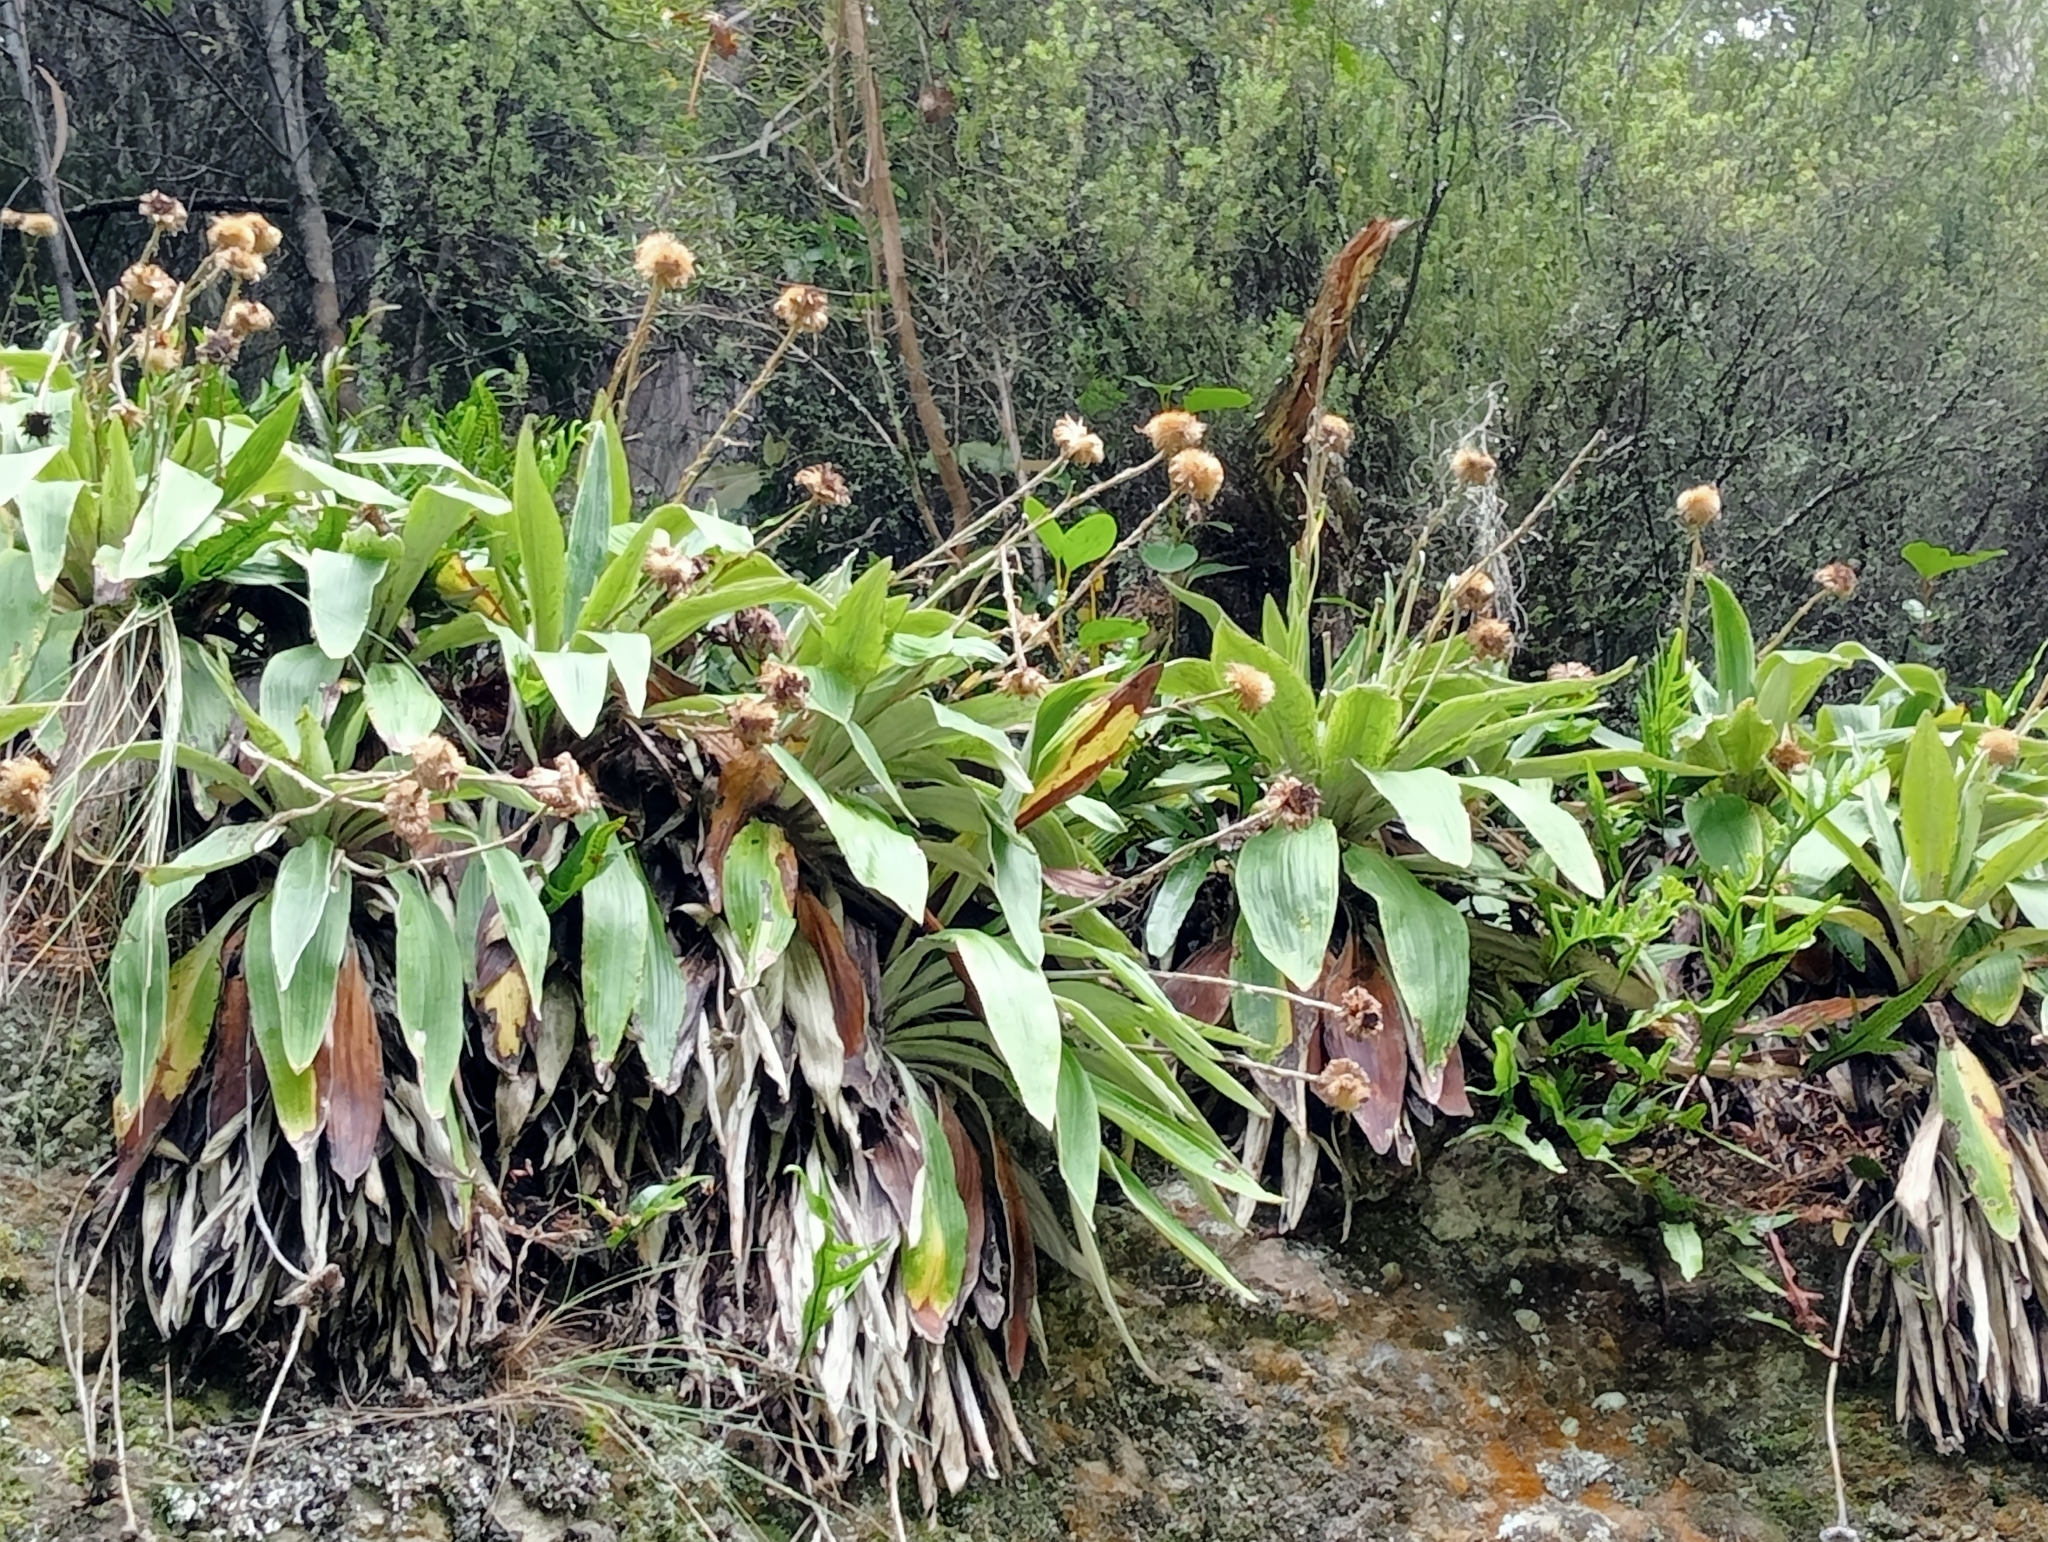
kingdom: Plantae
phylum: Tracheophyta
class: Magnoliopsida
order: Asterales
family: Asteraceae
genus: Celmisia
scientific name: Celmisia hookeri
